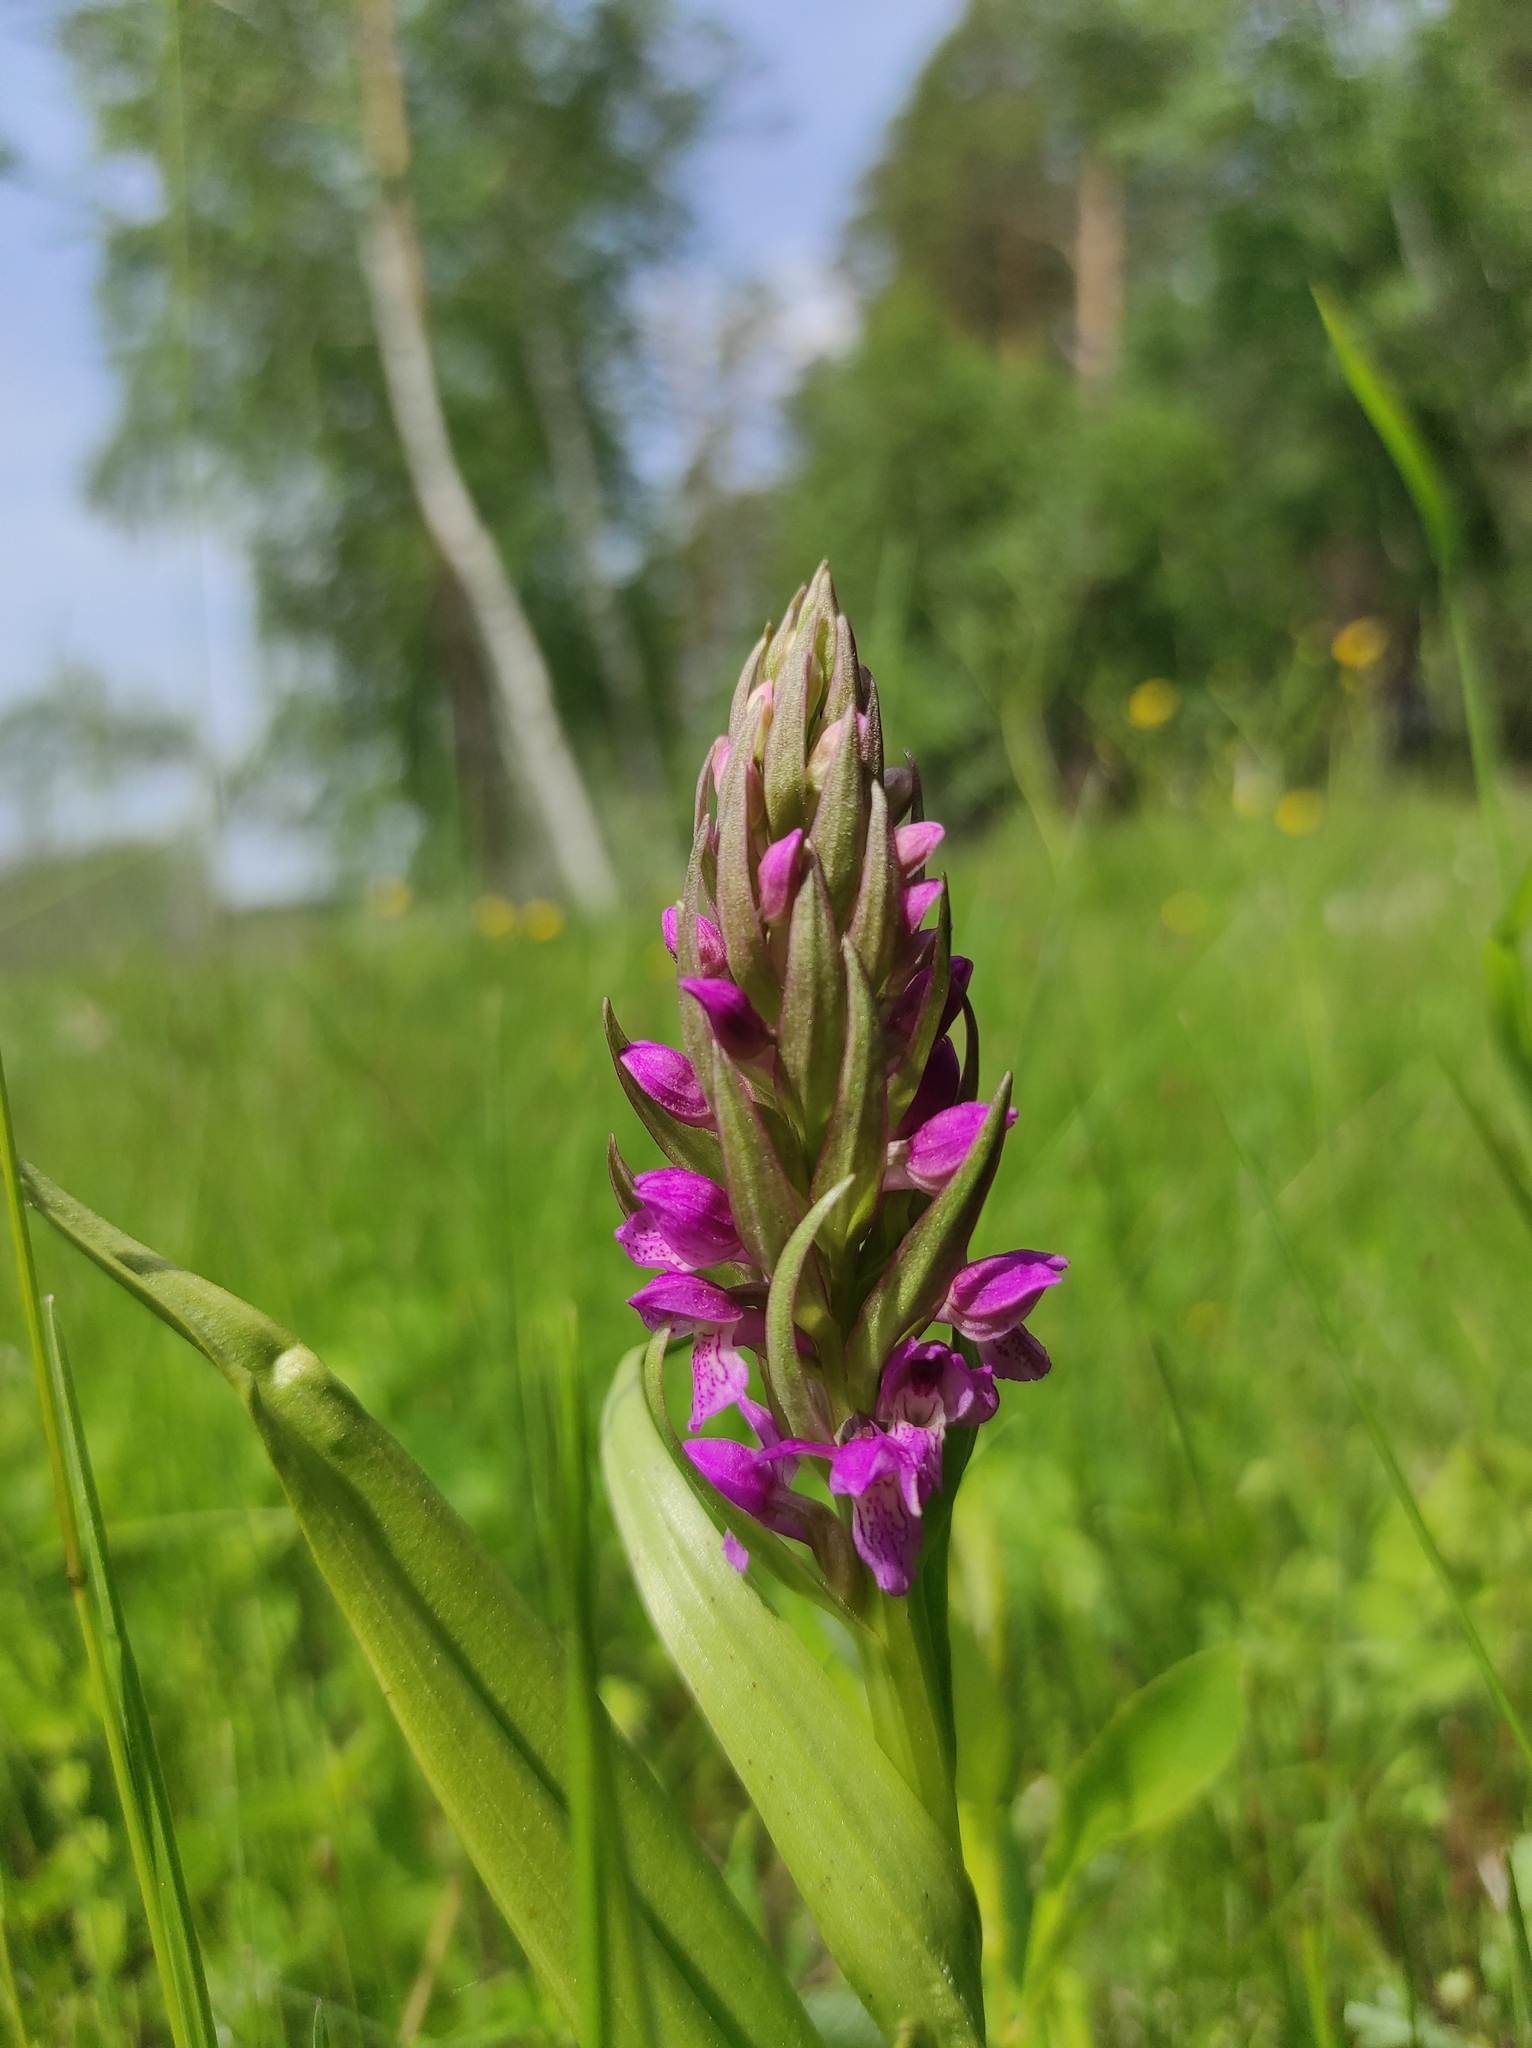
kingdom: Plantae
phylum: Tracheophyta
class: Liliopsida
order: Asparagales
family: Orchidaceae
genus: Dactylorhiza
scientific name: Dactylorhiza incarnata
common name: Early marsh-orchid
